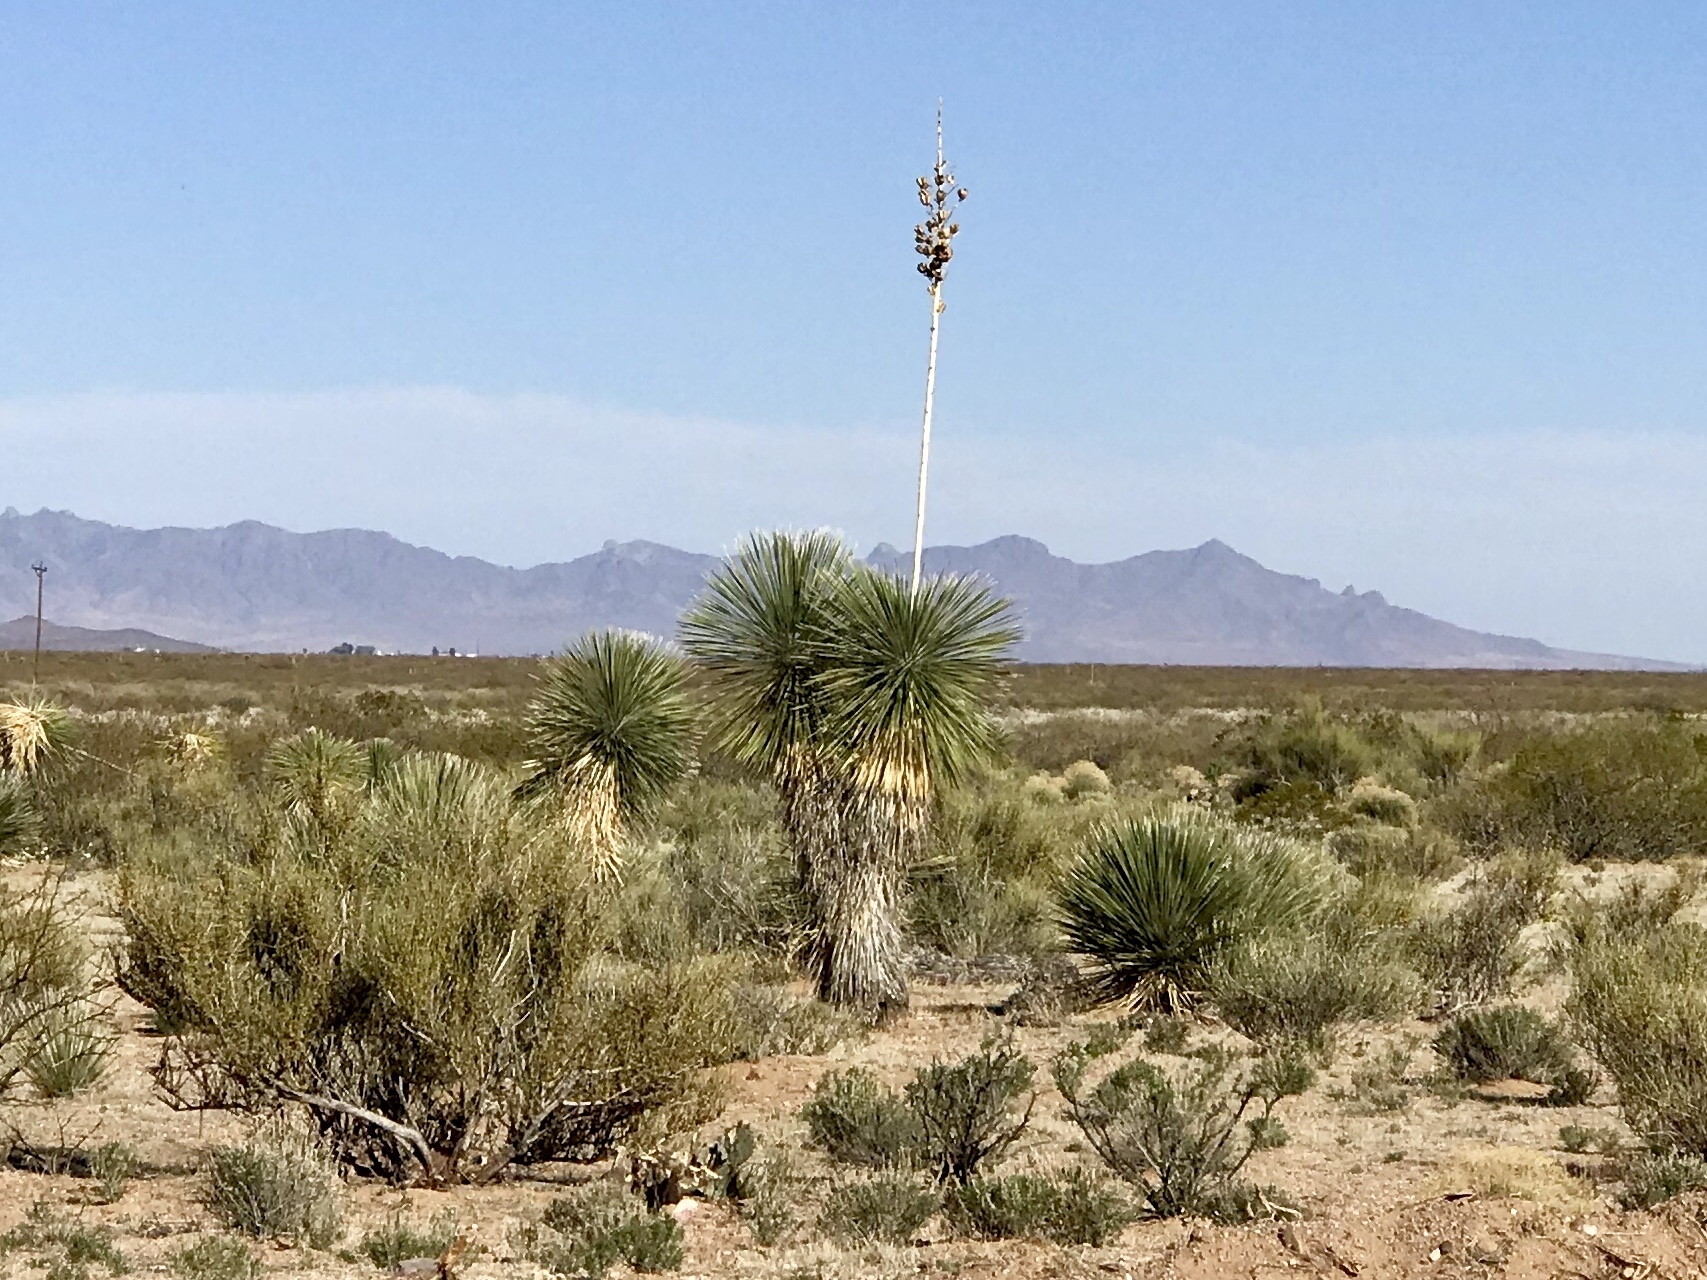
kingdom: Plantae
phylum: Tracheophyta
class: Liliopsida
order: Asparagales
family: Asparagaceae
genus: Yucca
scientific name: Yucca elata
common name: Palmella
